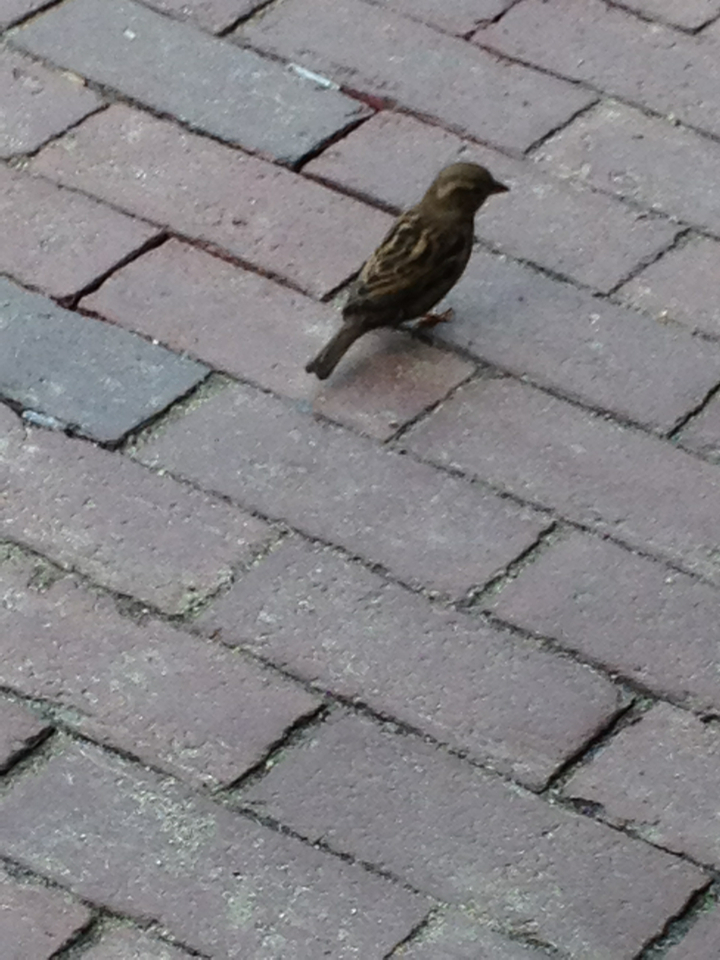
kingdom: Animalia
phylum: Chordata
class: Aves
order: Passeriformes
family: Passeridae
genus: Passer
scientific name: Passer domesticus
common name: House sparrow
